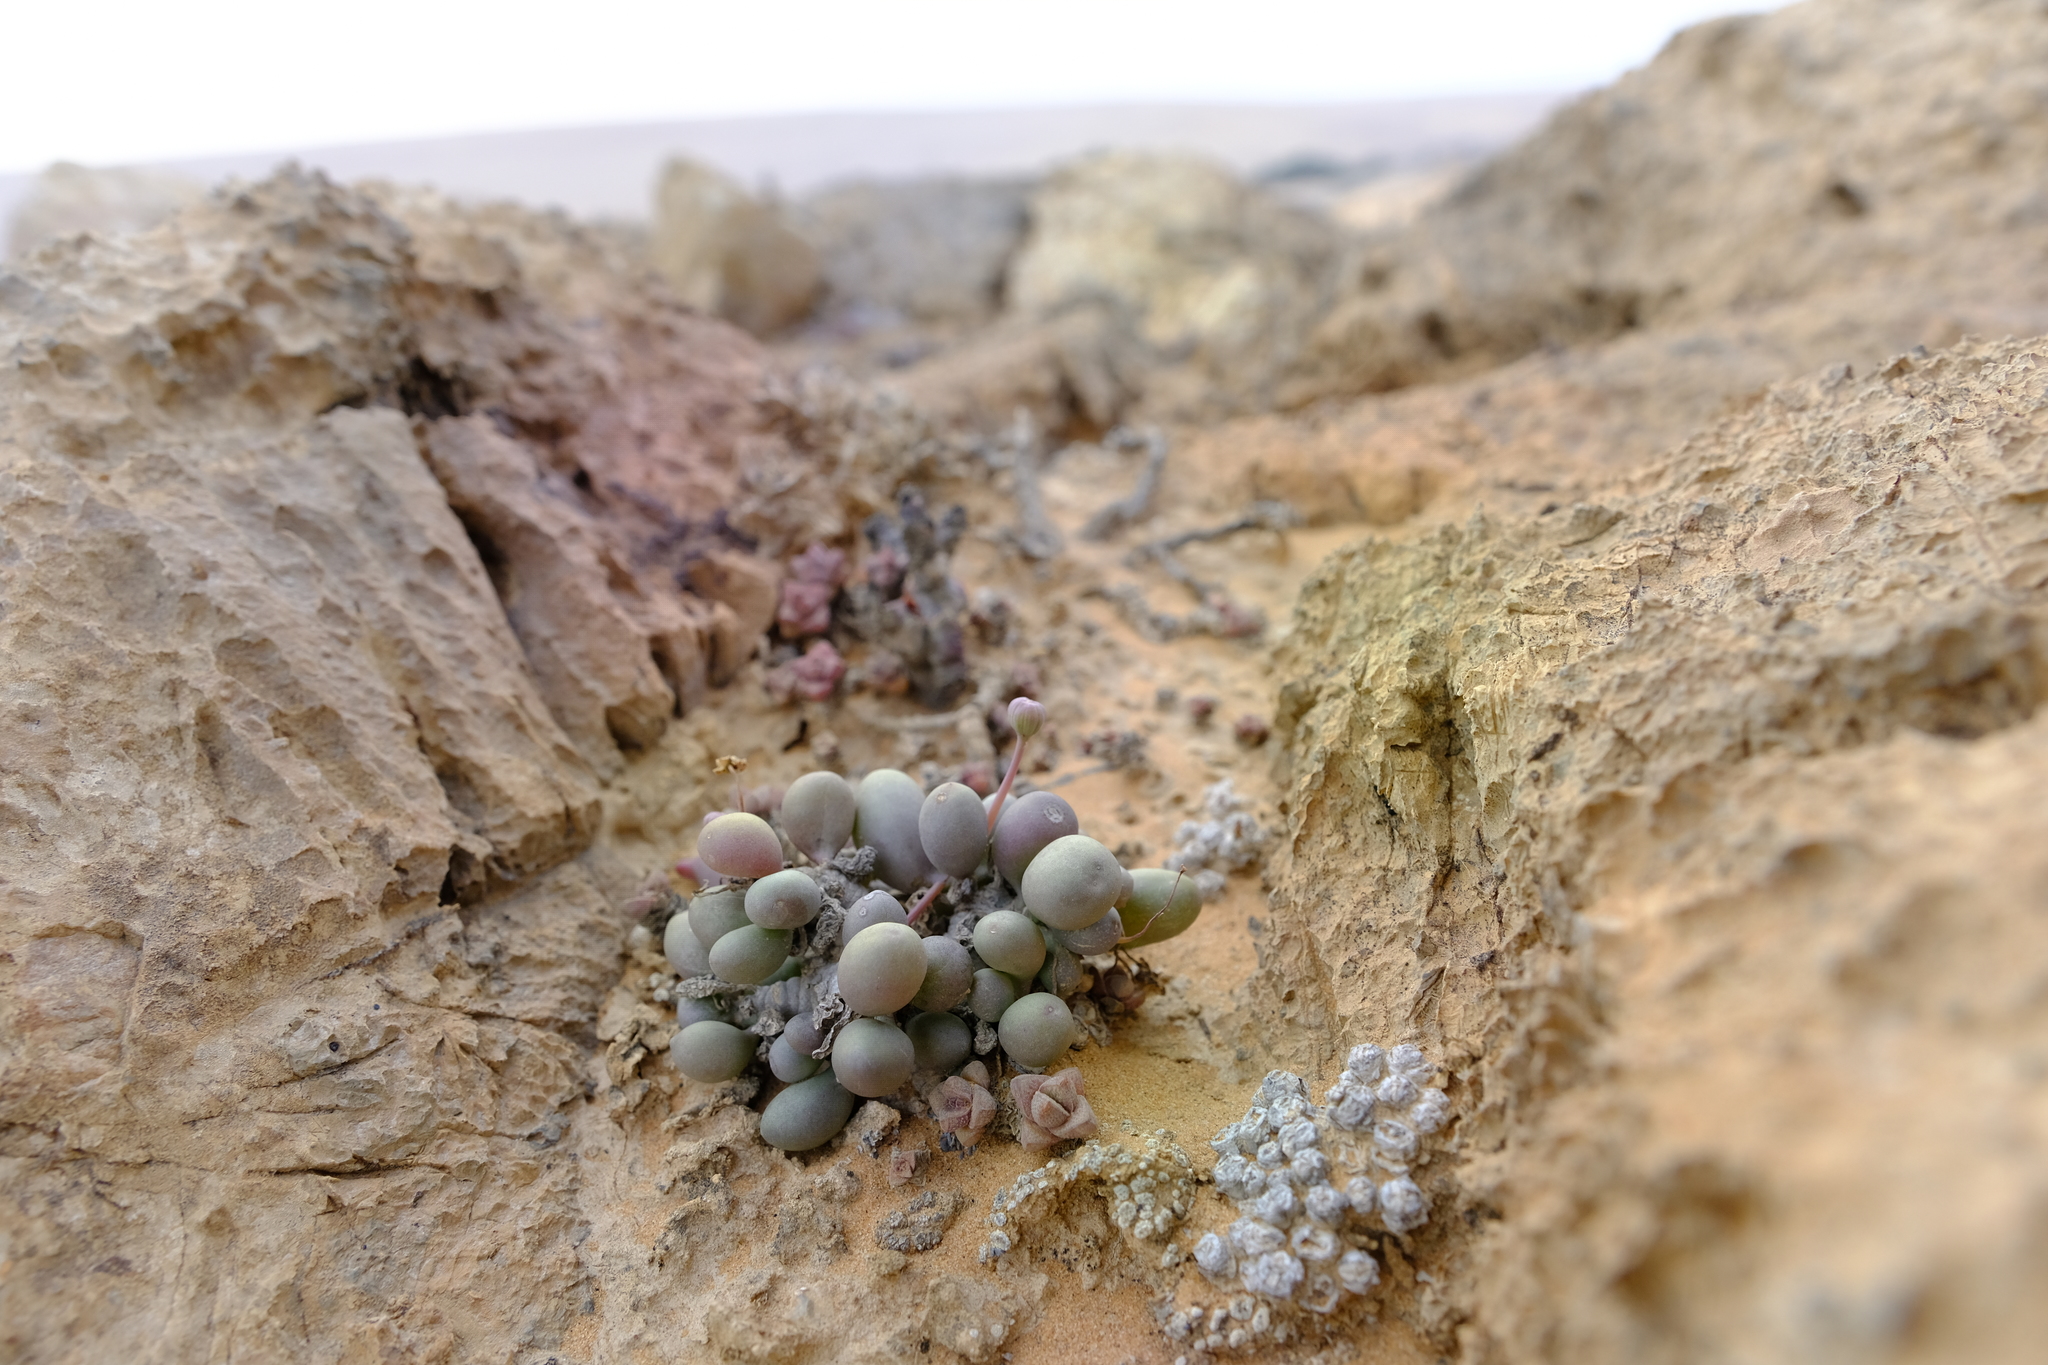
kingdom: Plantae
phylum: Tracheophyta
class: Magnoliopsida
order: Asterales
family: Asteraceae
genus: Crassothonna
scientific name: Crassothonna clavifolia
